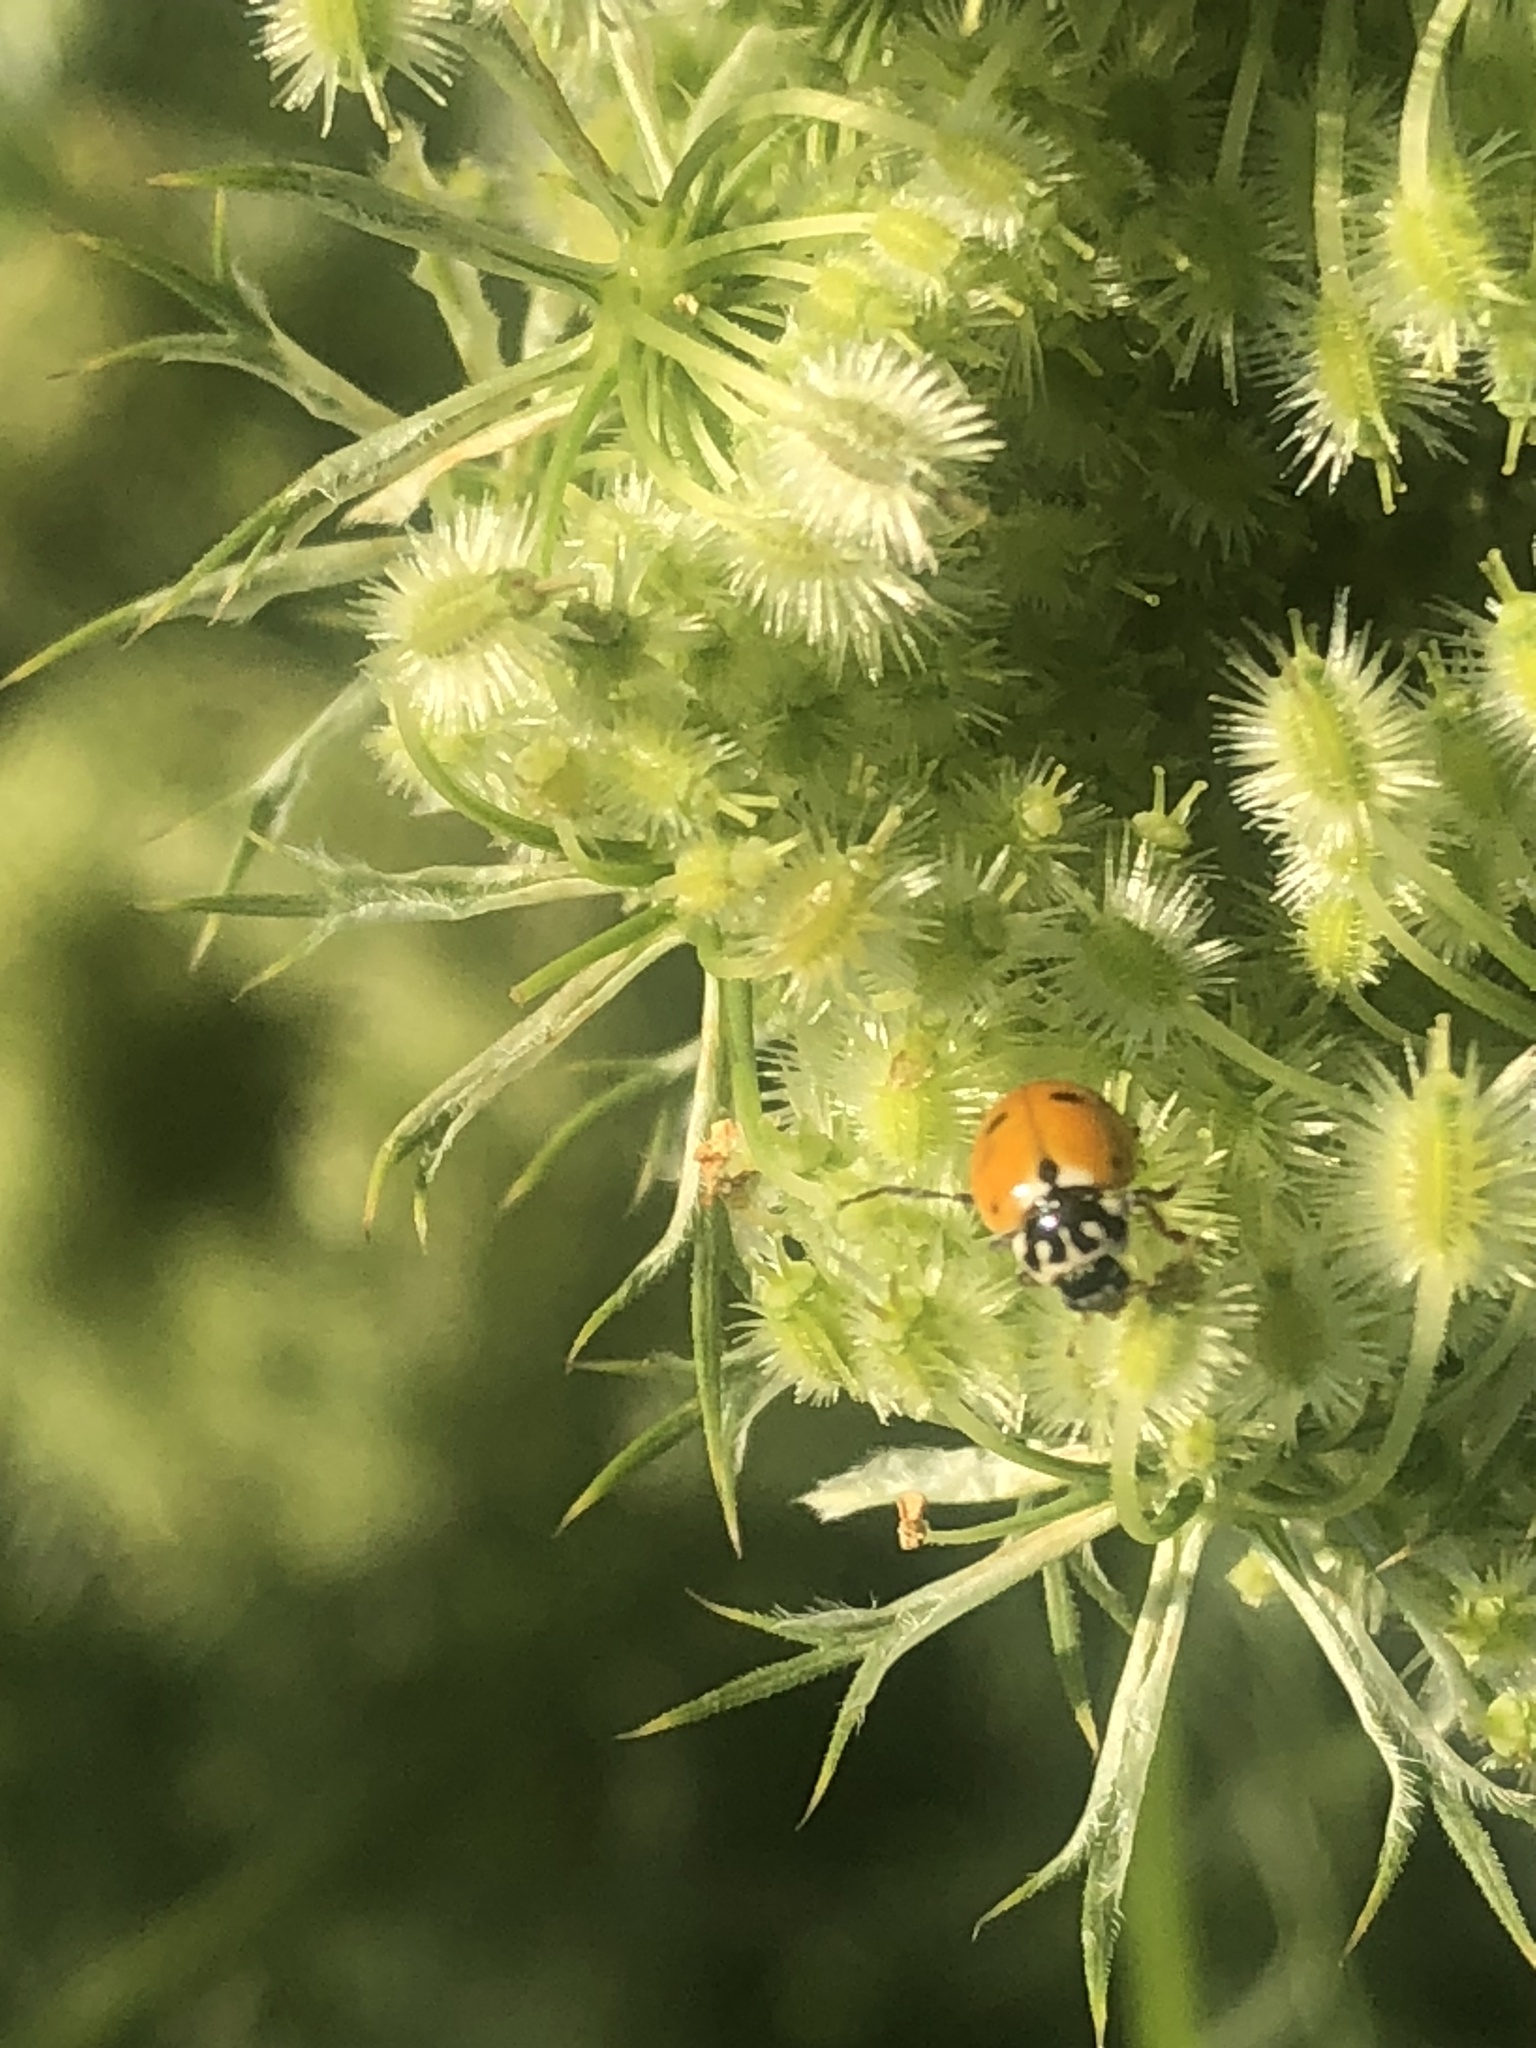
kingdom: Animalia
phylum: Arthropoda
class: Insecta
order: Coleoptera
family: Coccinellidae
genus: Hippodamia
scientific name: Hippodamia variegata
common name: Ladybird beetle
